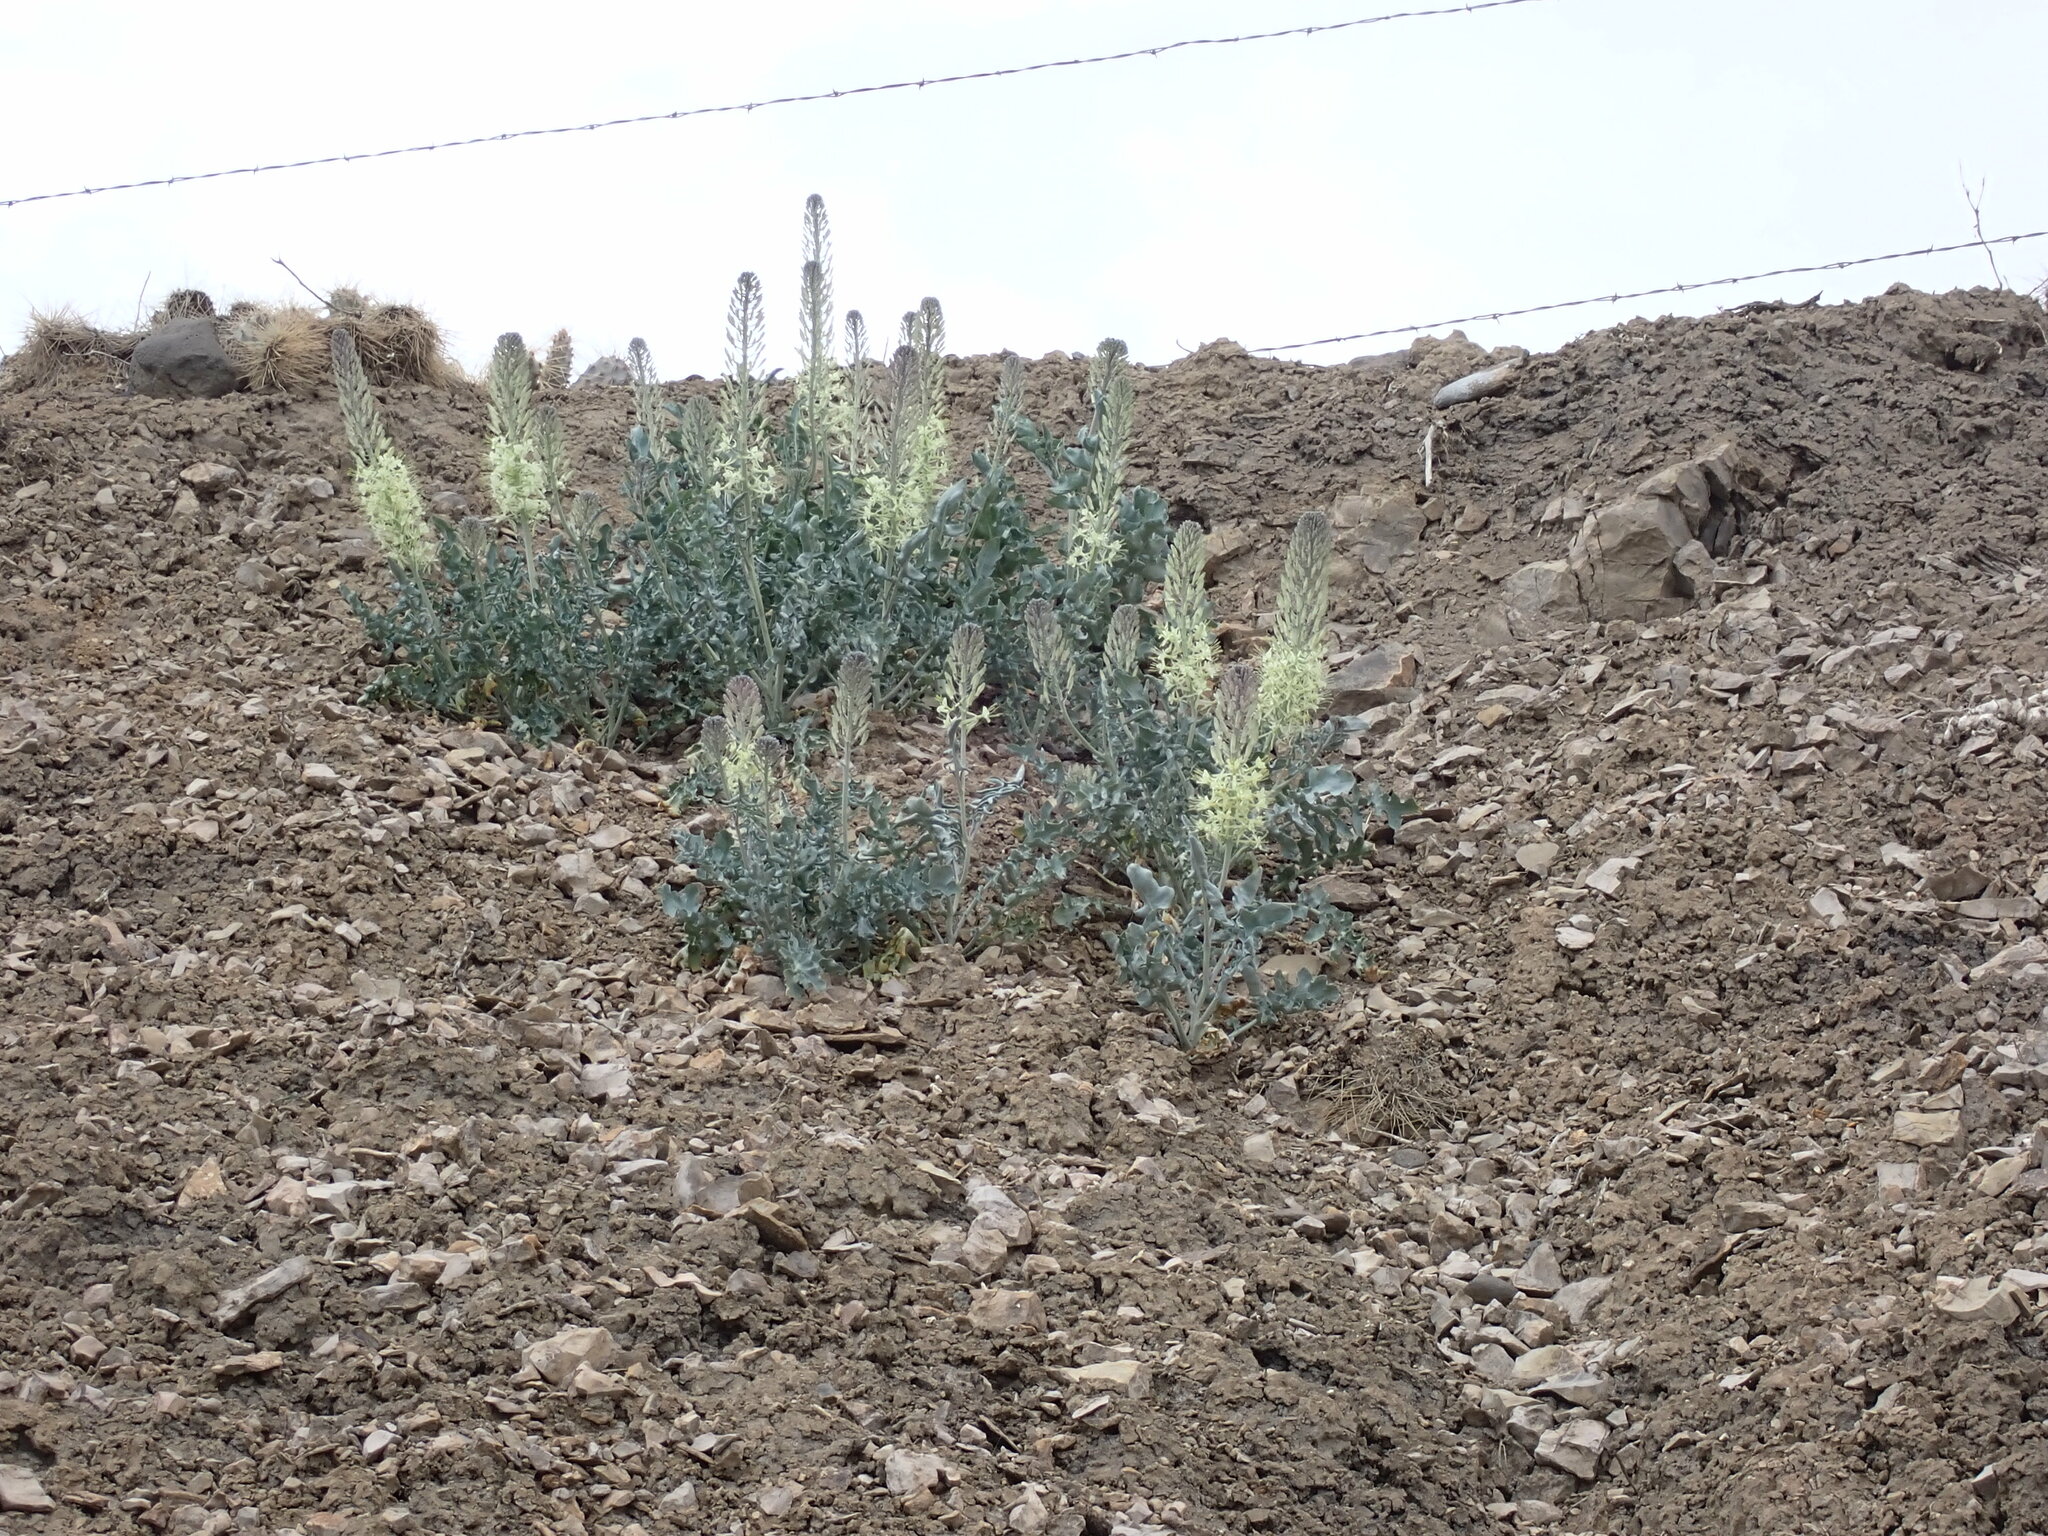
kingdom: Plantae
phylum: Tracheophyta
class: Magnoliopsida
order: Brassicales
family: Brassicaceae
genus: Stanleya
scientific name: Stanleya albescens
